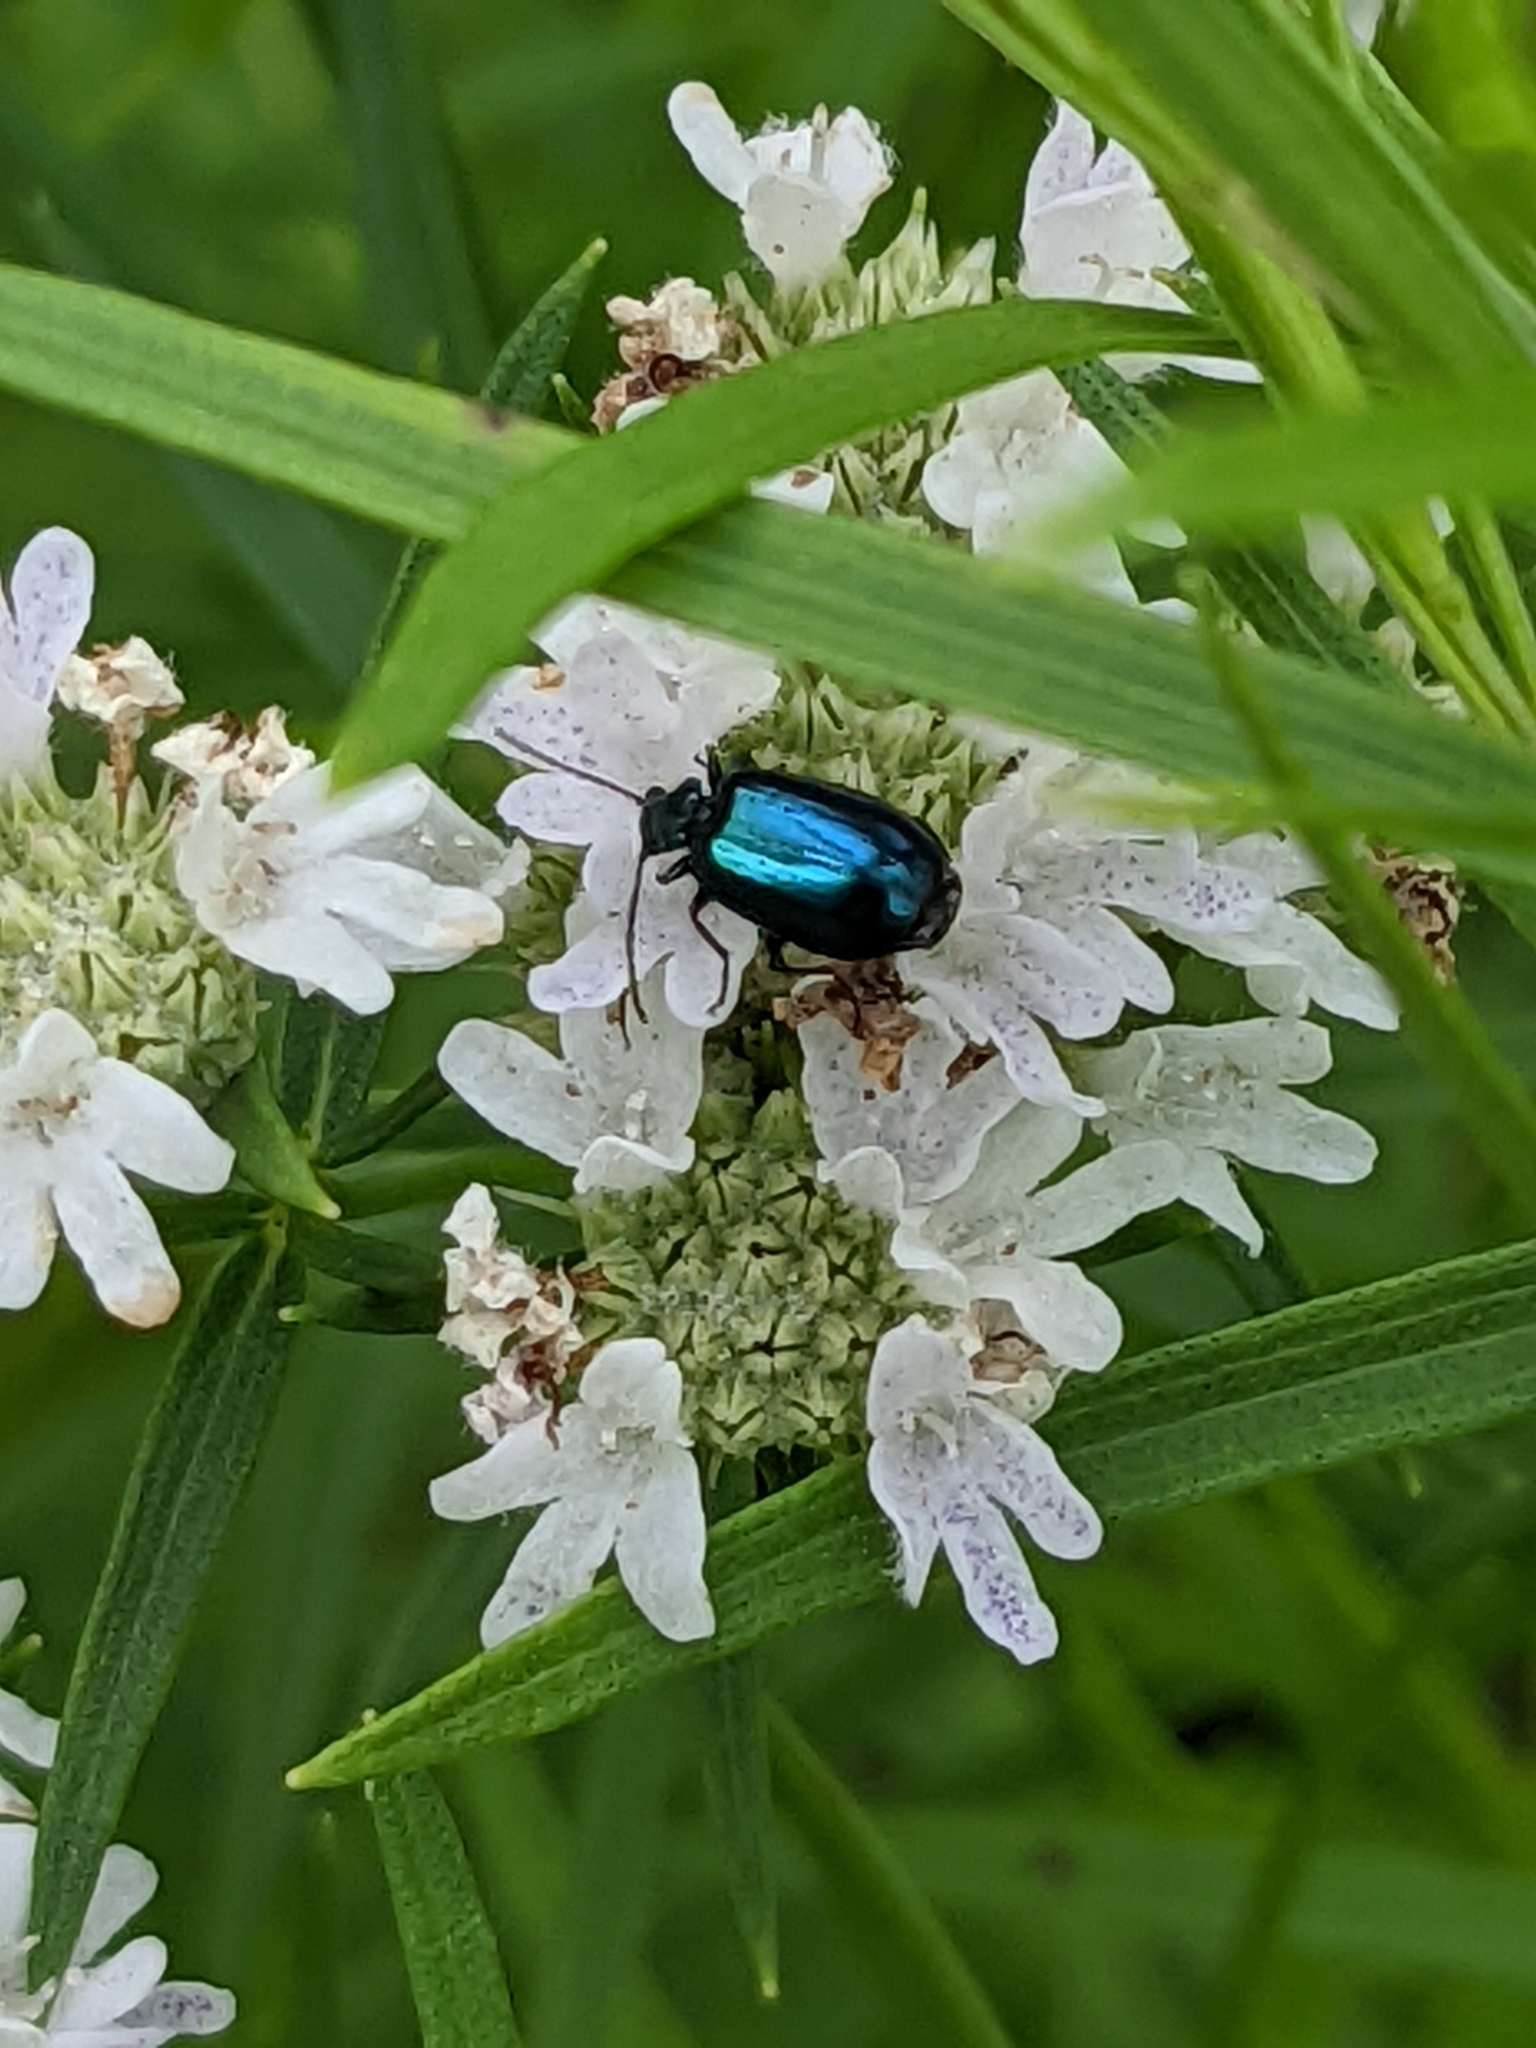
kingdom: Animalia
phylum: Arthropoda
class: Insecta
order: Coleoptera
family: Carabidae
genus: Lebia
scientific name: Lebia viridis
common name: Flower lebia beetle
